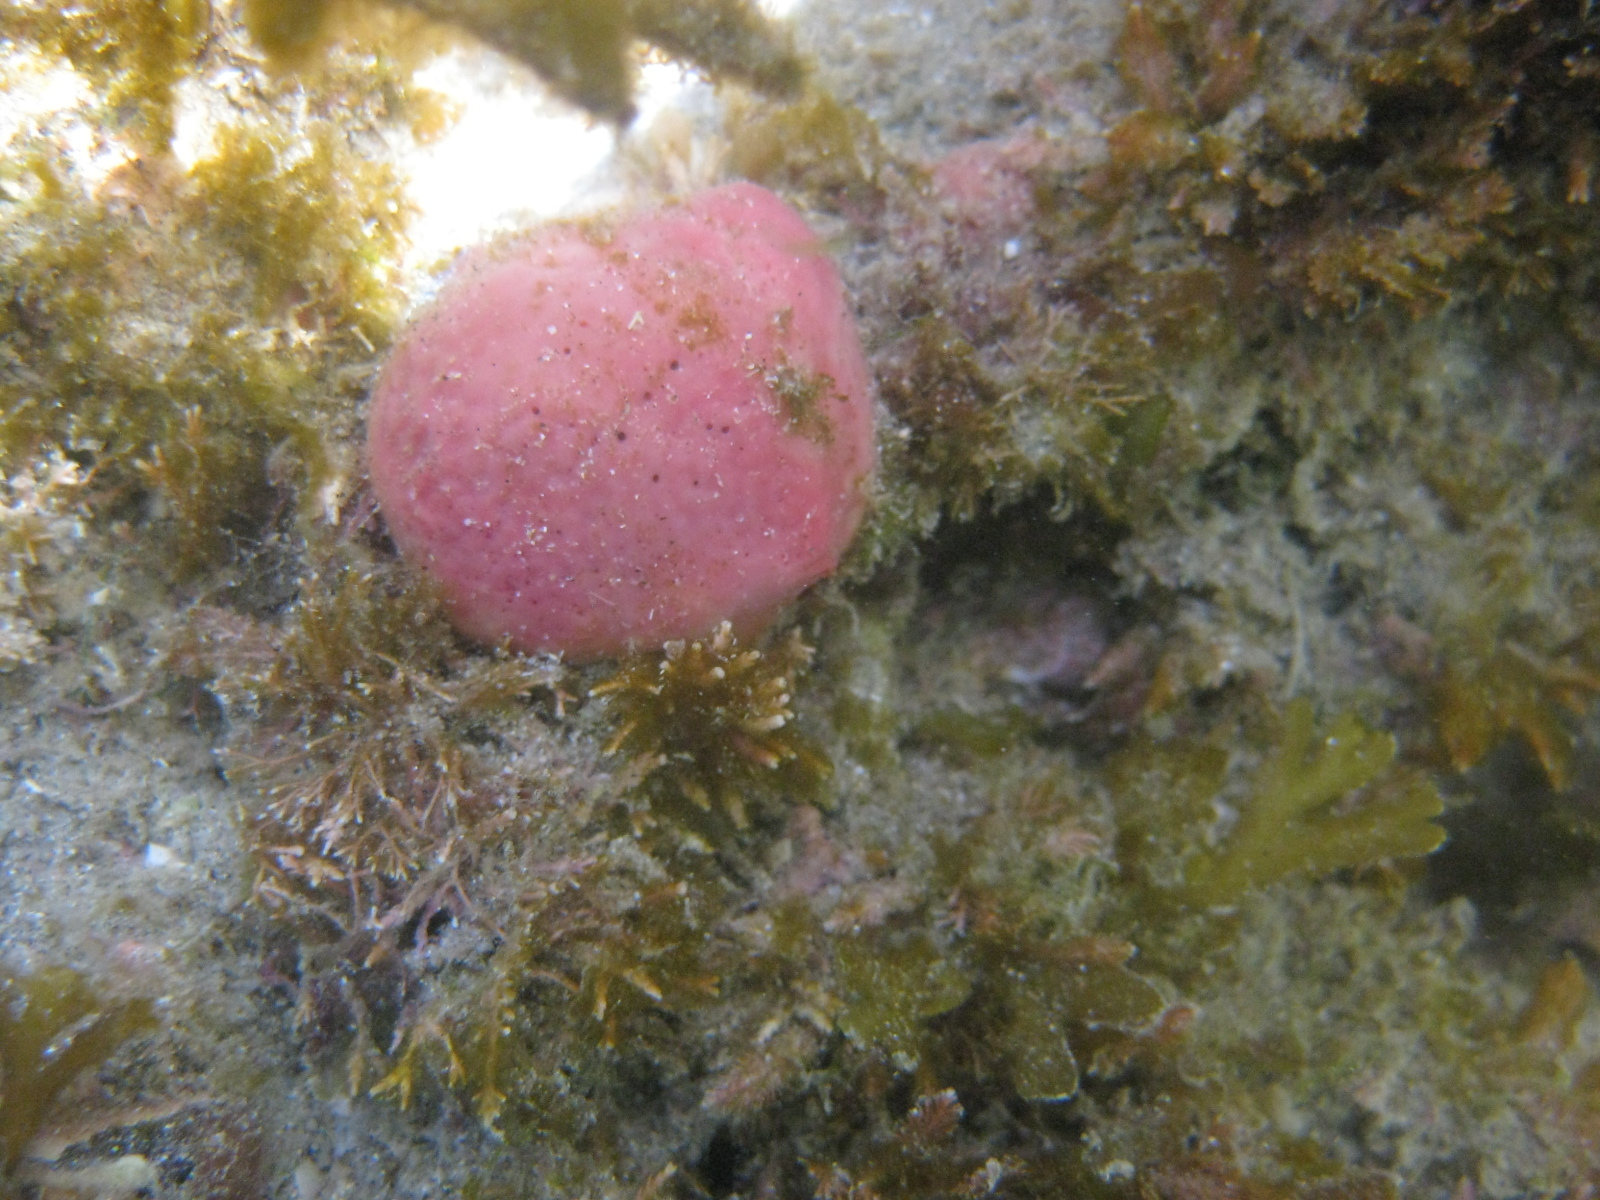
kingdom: Animalia
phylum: Porifera
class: Demospongiae
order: Tethyida
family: Tethyidae
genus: Tethya
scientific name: Tethya bergquistae
